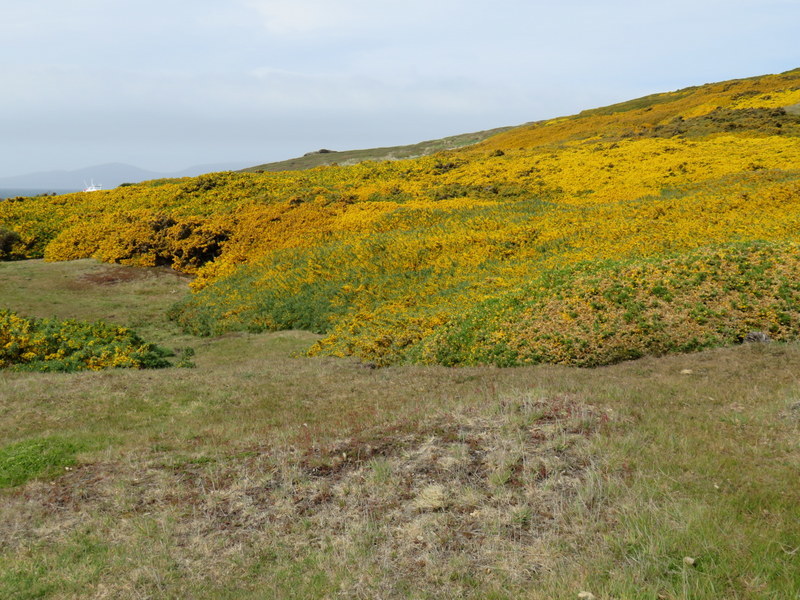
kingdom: Plantae
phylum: Tracheophyta
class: Magnoliopsida
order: Fabales
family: Fabaceae
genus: Ulex
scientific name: Ulex europaeus
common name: Common gorse
